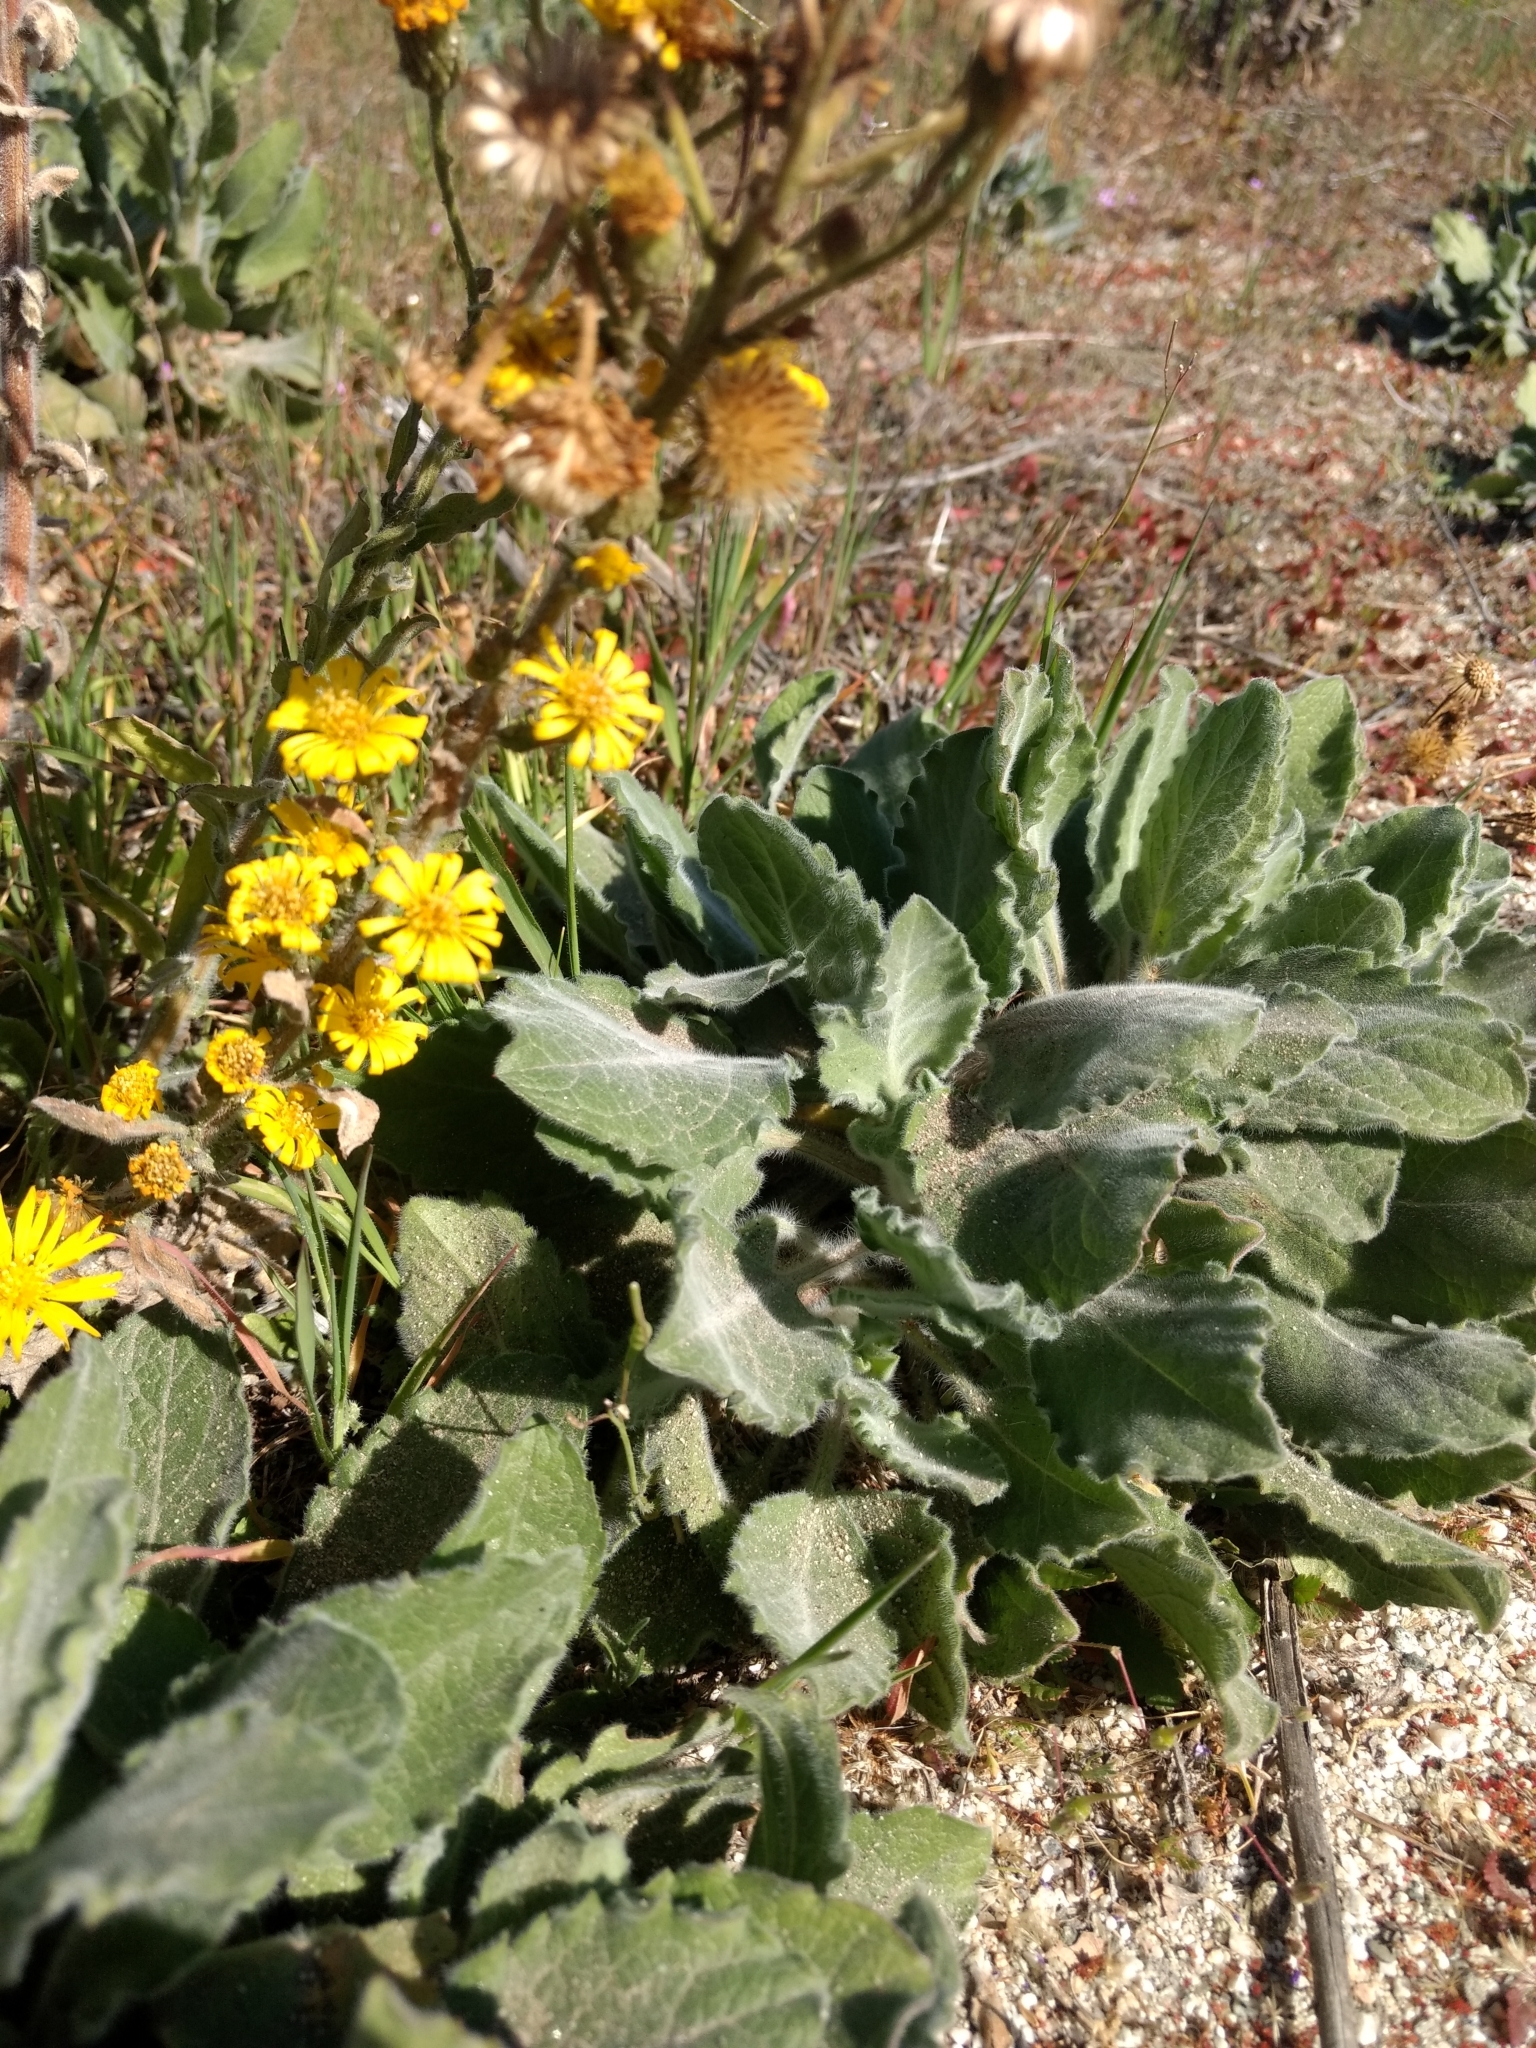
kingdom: Plantae
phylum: Tracheophyta
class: Magnoliopsida
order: Asterales
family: Asteraceae
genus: Heterotheca
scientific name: Heterotheca grandiflora
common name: Telegraphweed
